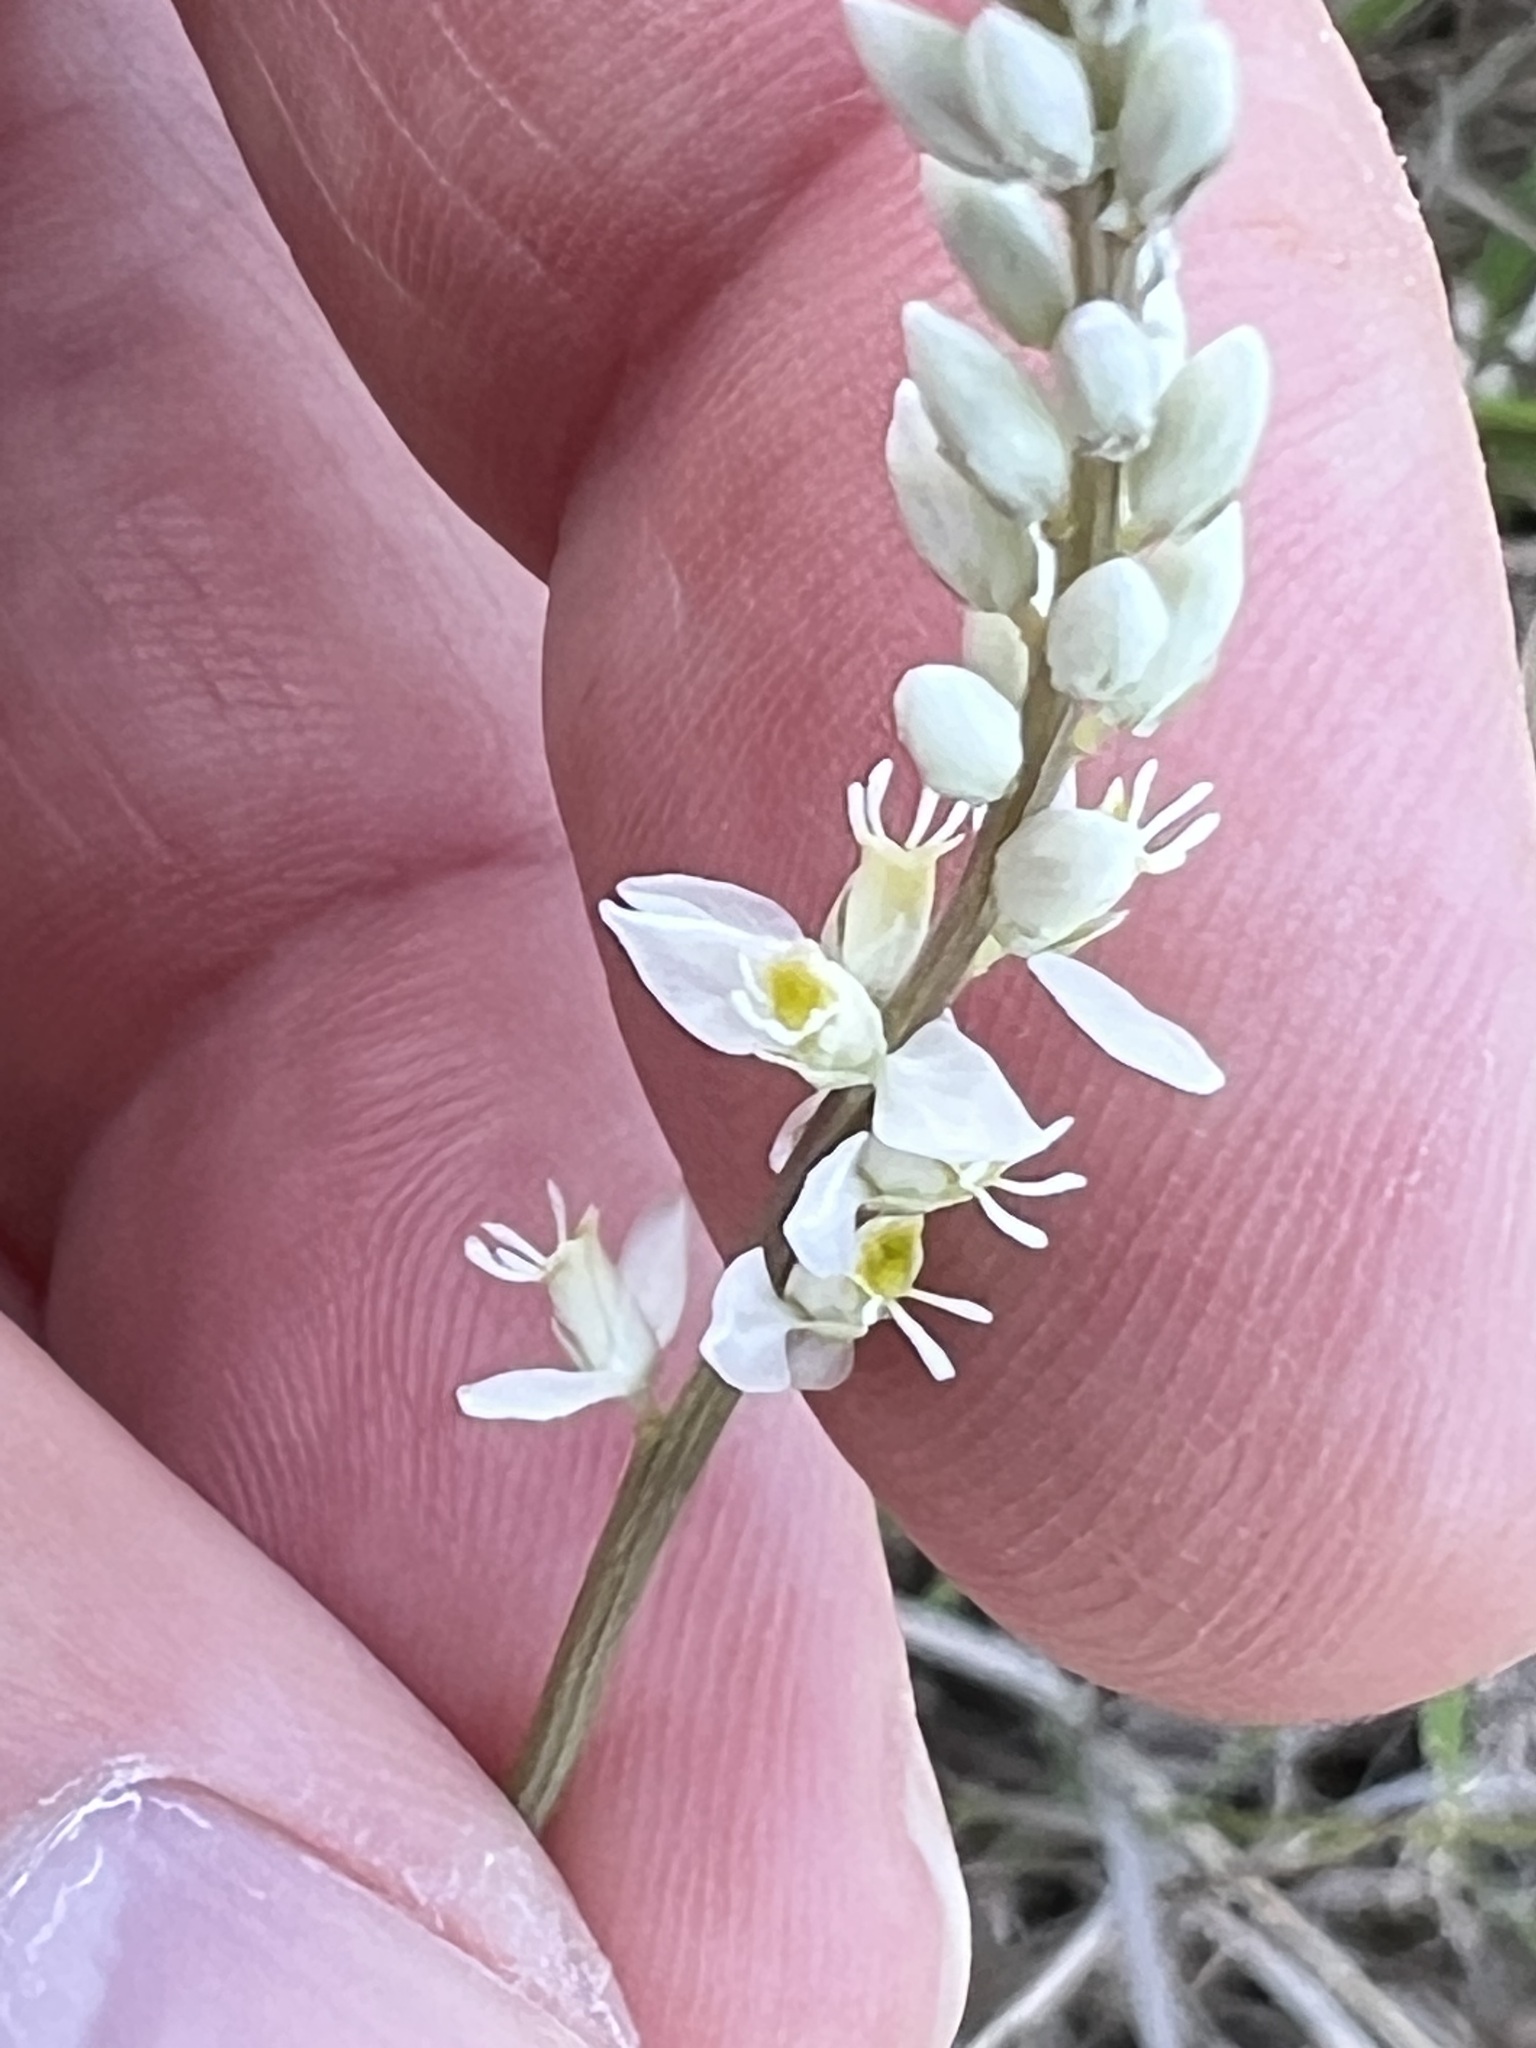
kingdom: Plantae
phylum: Tracheophyta
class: Magnoliopsida
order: Fabales
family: Polygalaceae
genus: Polygala
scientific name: Polygala alba
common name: White milkwort
